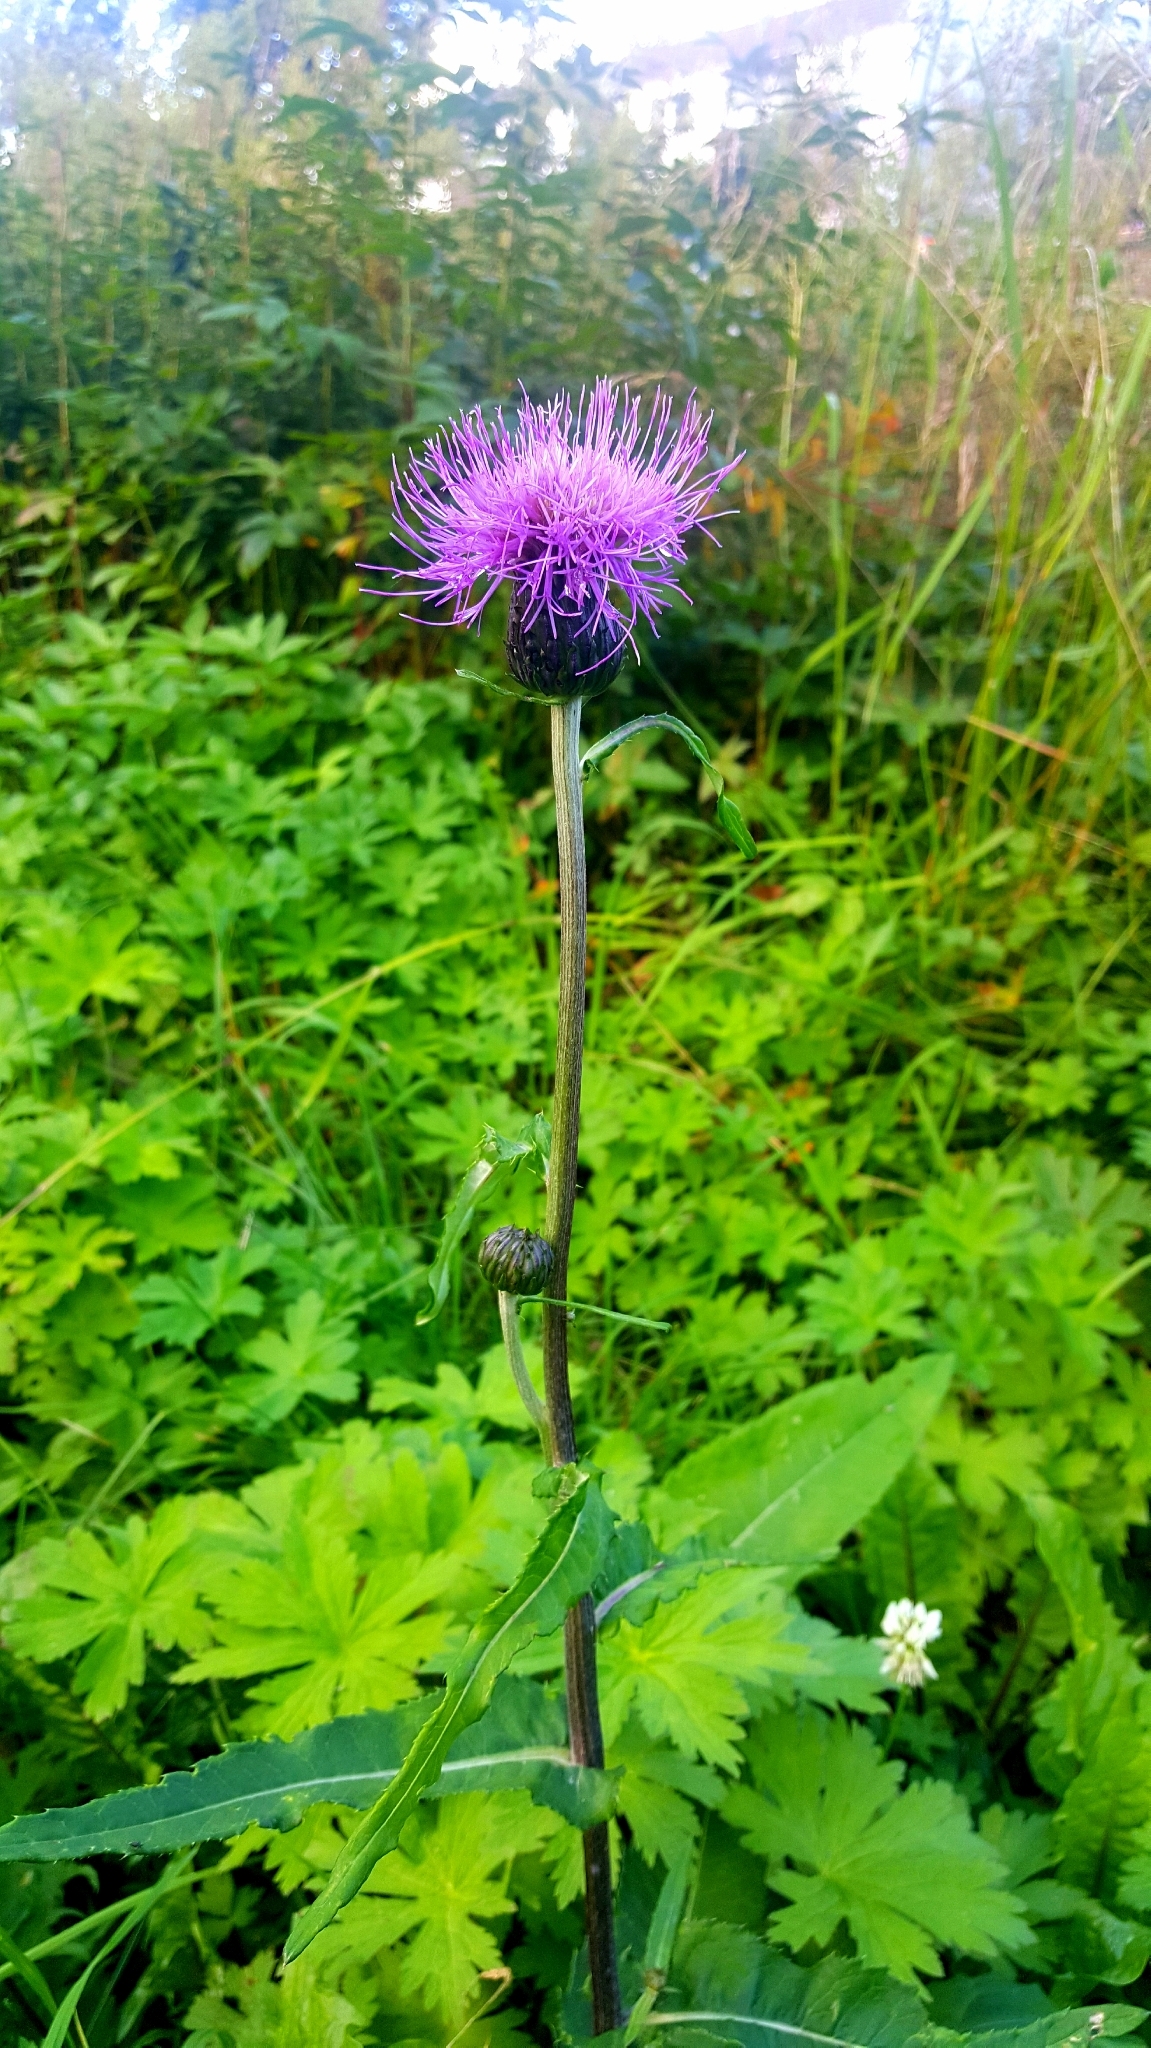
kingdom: Plantae
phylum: Tracheophyta
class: Magnoliopsida
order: Asterales
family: Asteraceae
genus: Cirsium
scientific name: Cirsium heterophyllum
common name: Melancholy thistle
